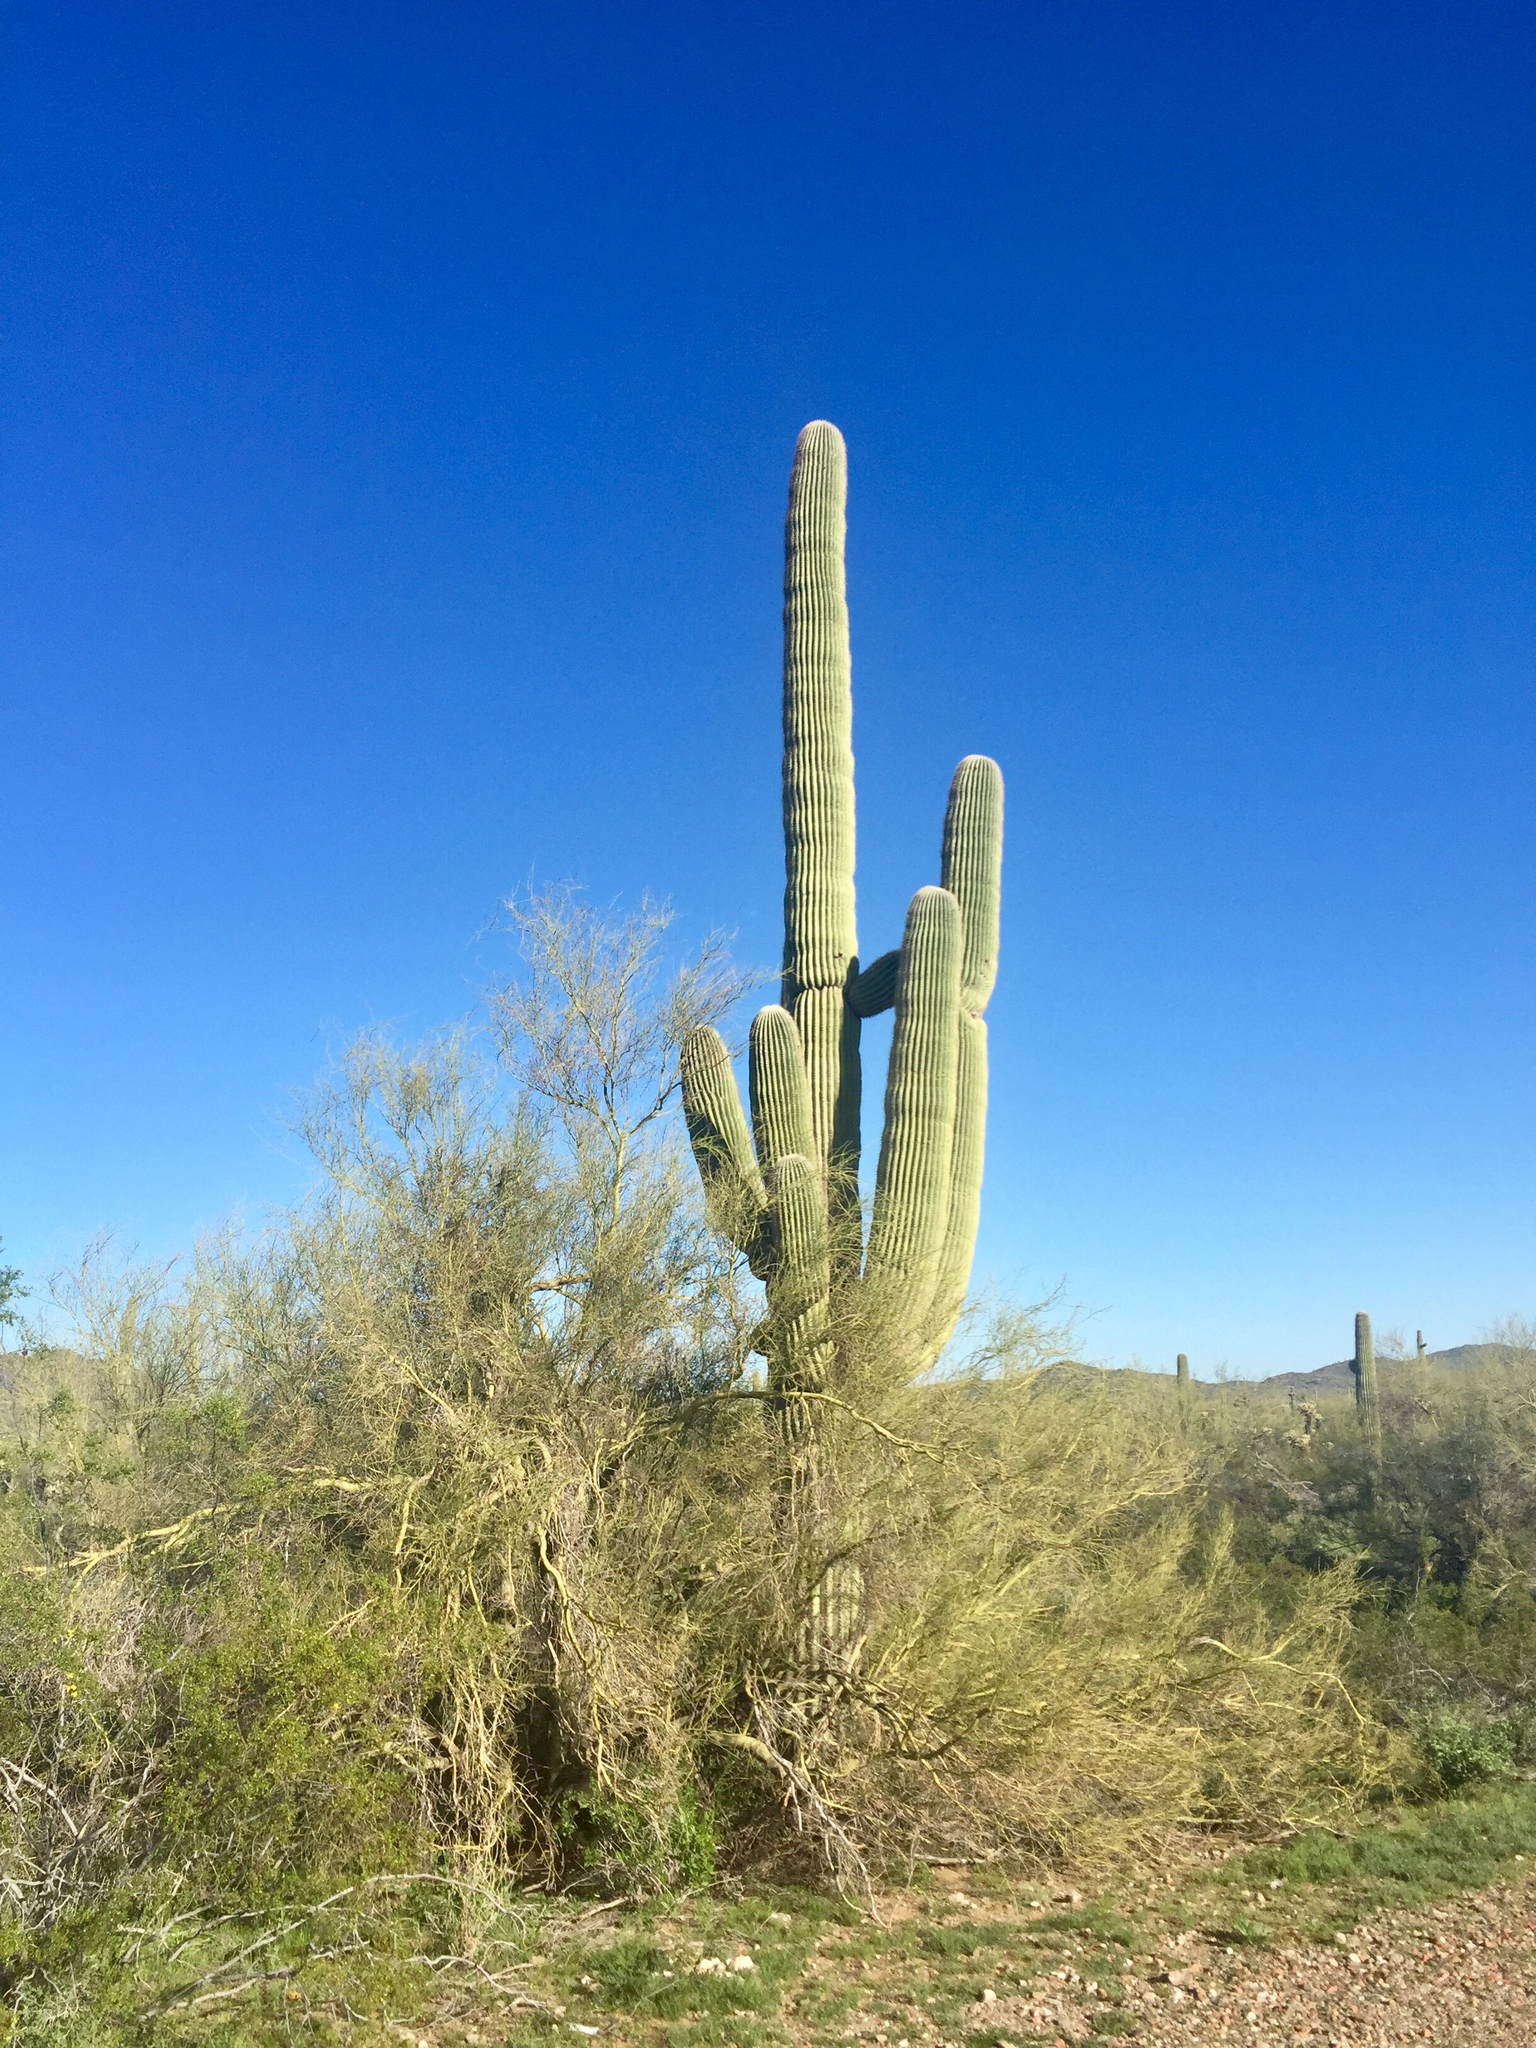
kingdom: Plantae
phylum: Tracheophyta
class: Magnoliopsida
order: Caryophyllales
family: Cactaceae
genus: Carnegiea
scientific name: Carnegiea gigantea
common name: Saguaro
